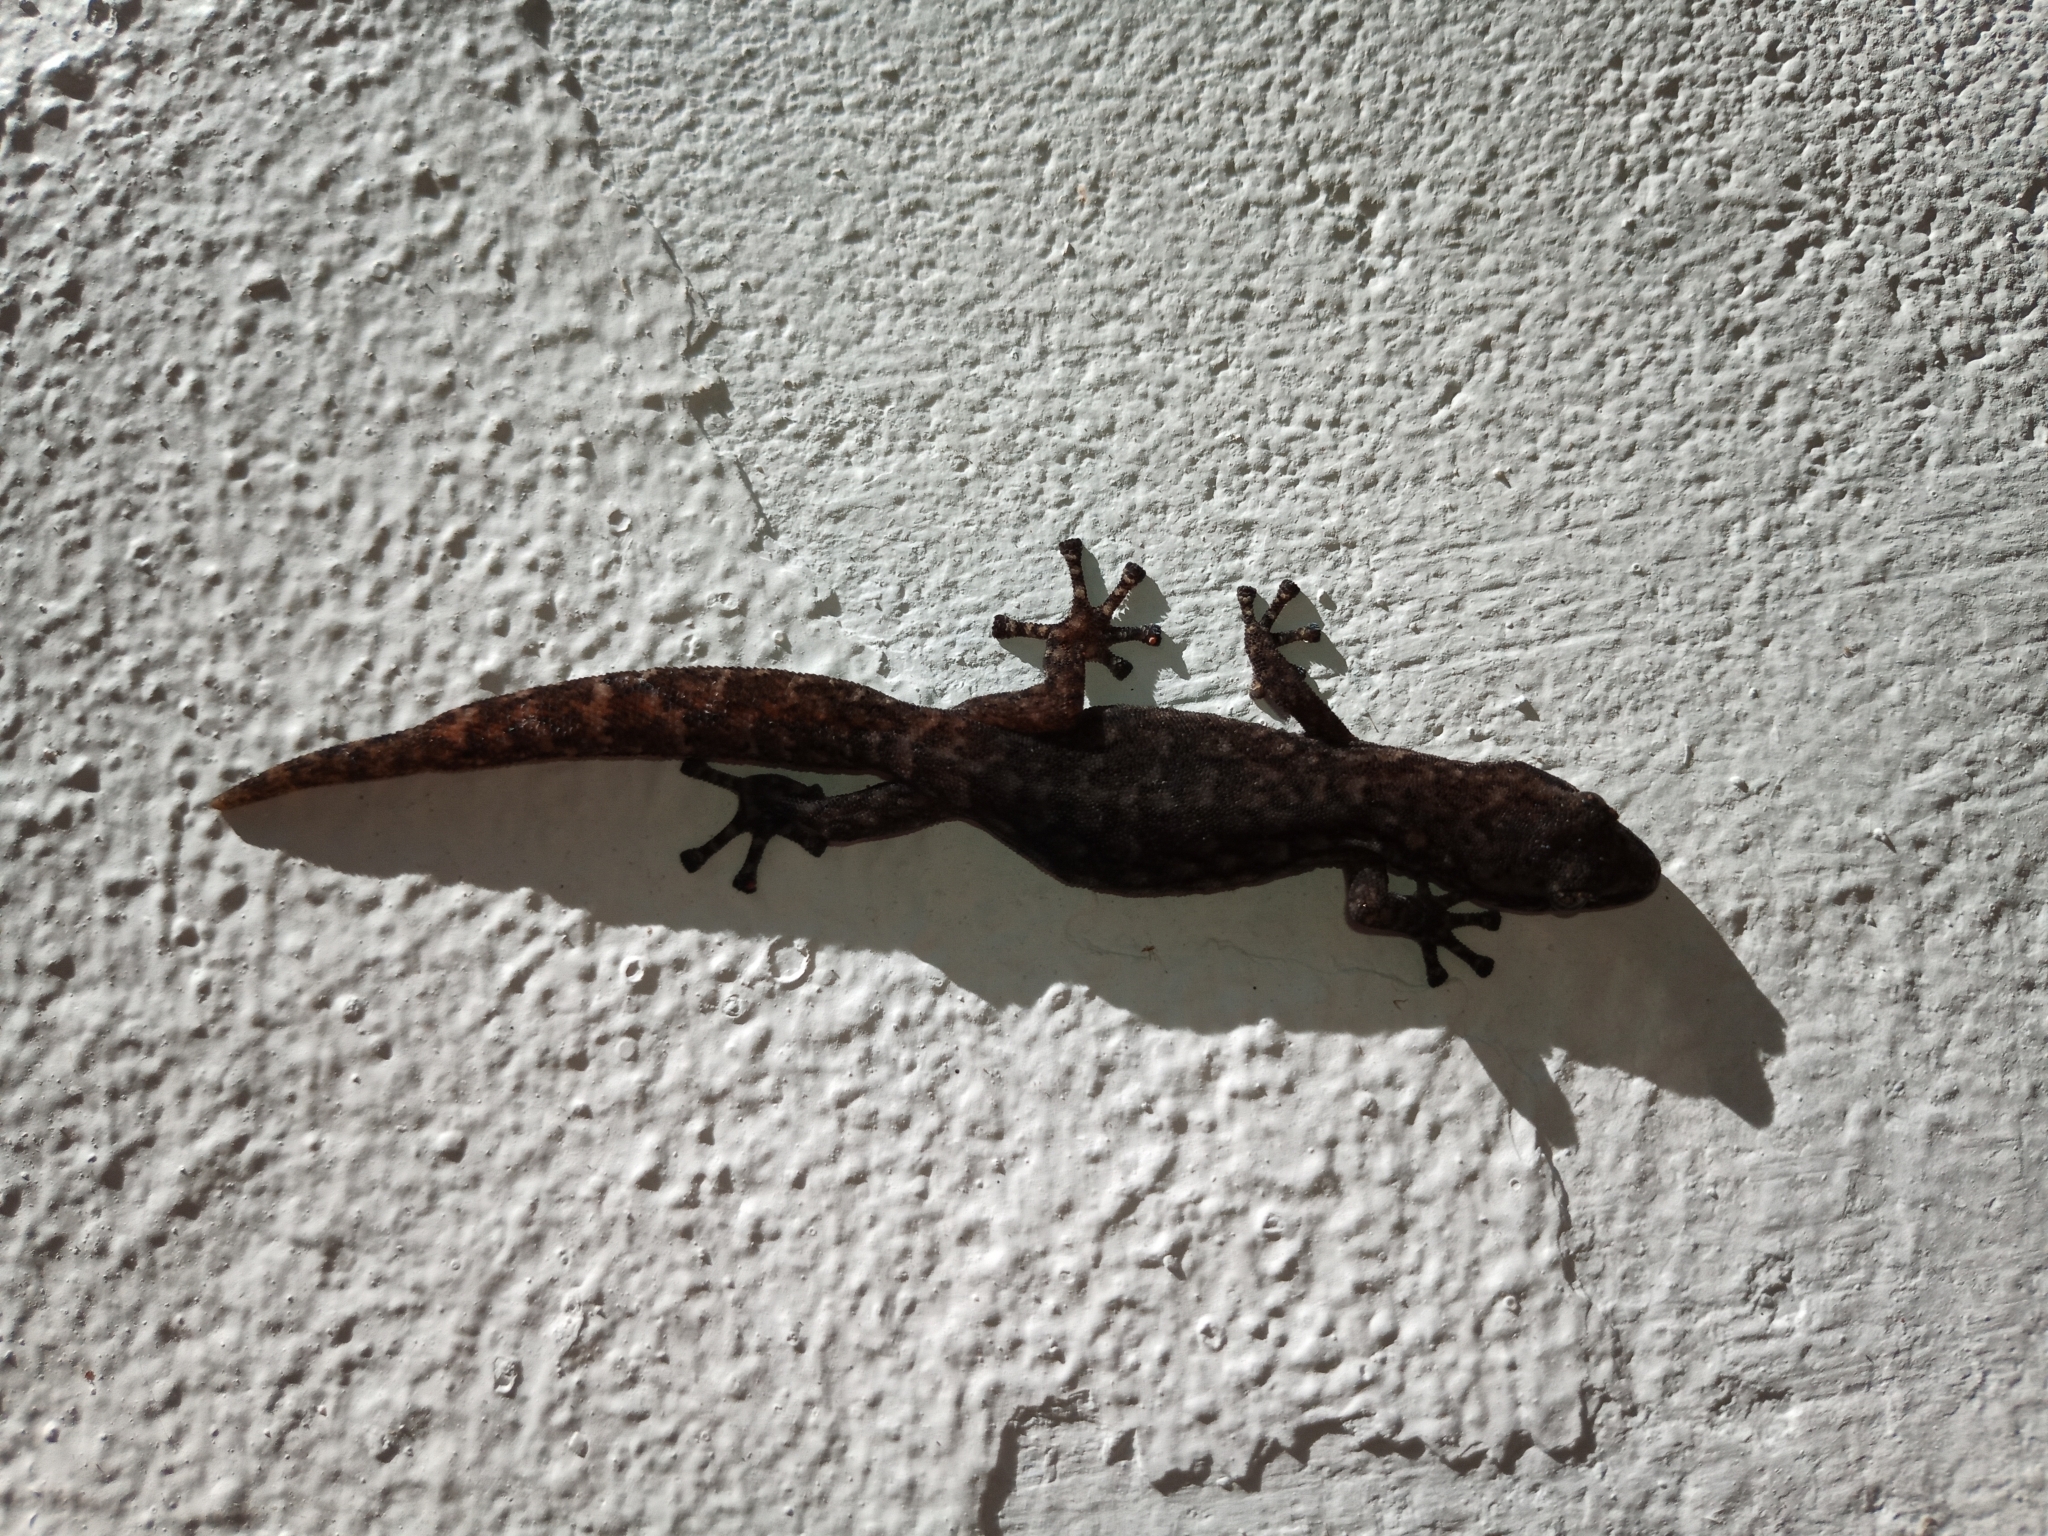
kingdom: Animalia
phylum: Chordata
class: Squamata
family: Gekkonidae
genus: Afrogecko
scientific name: Afrogecko porphyreus
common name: Marbled leaf-toed gecko
